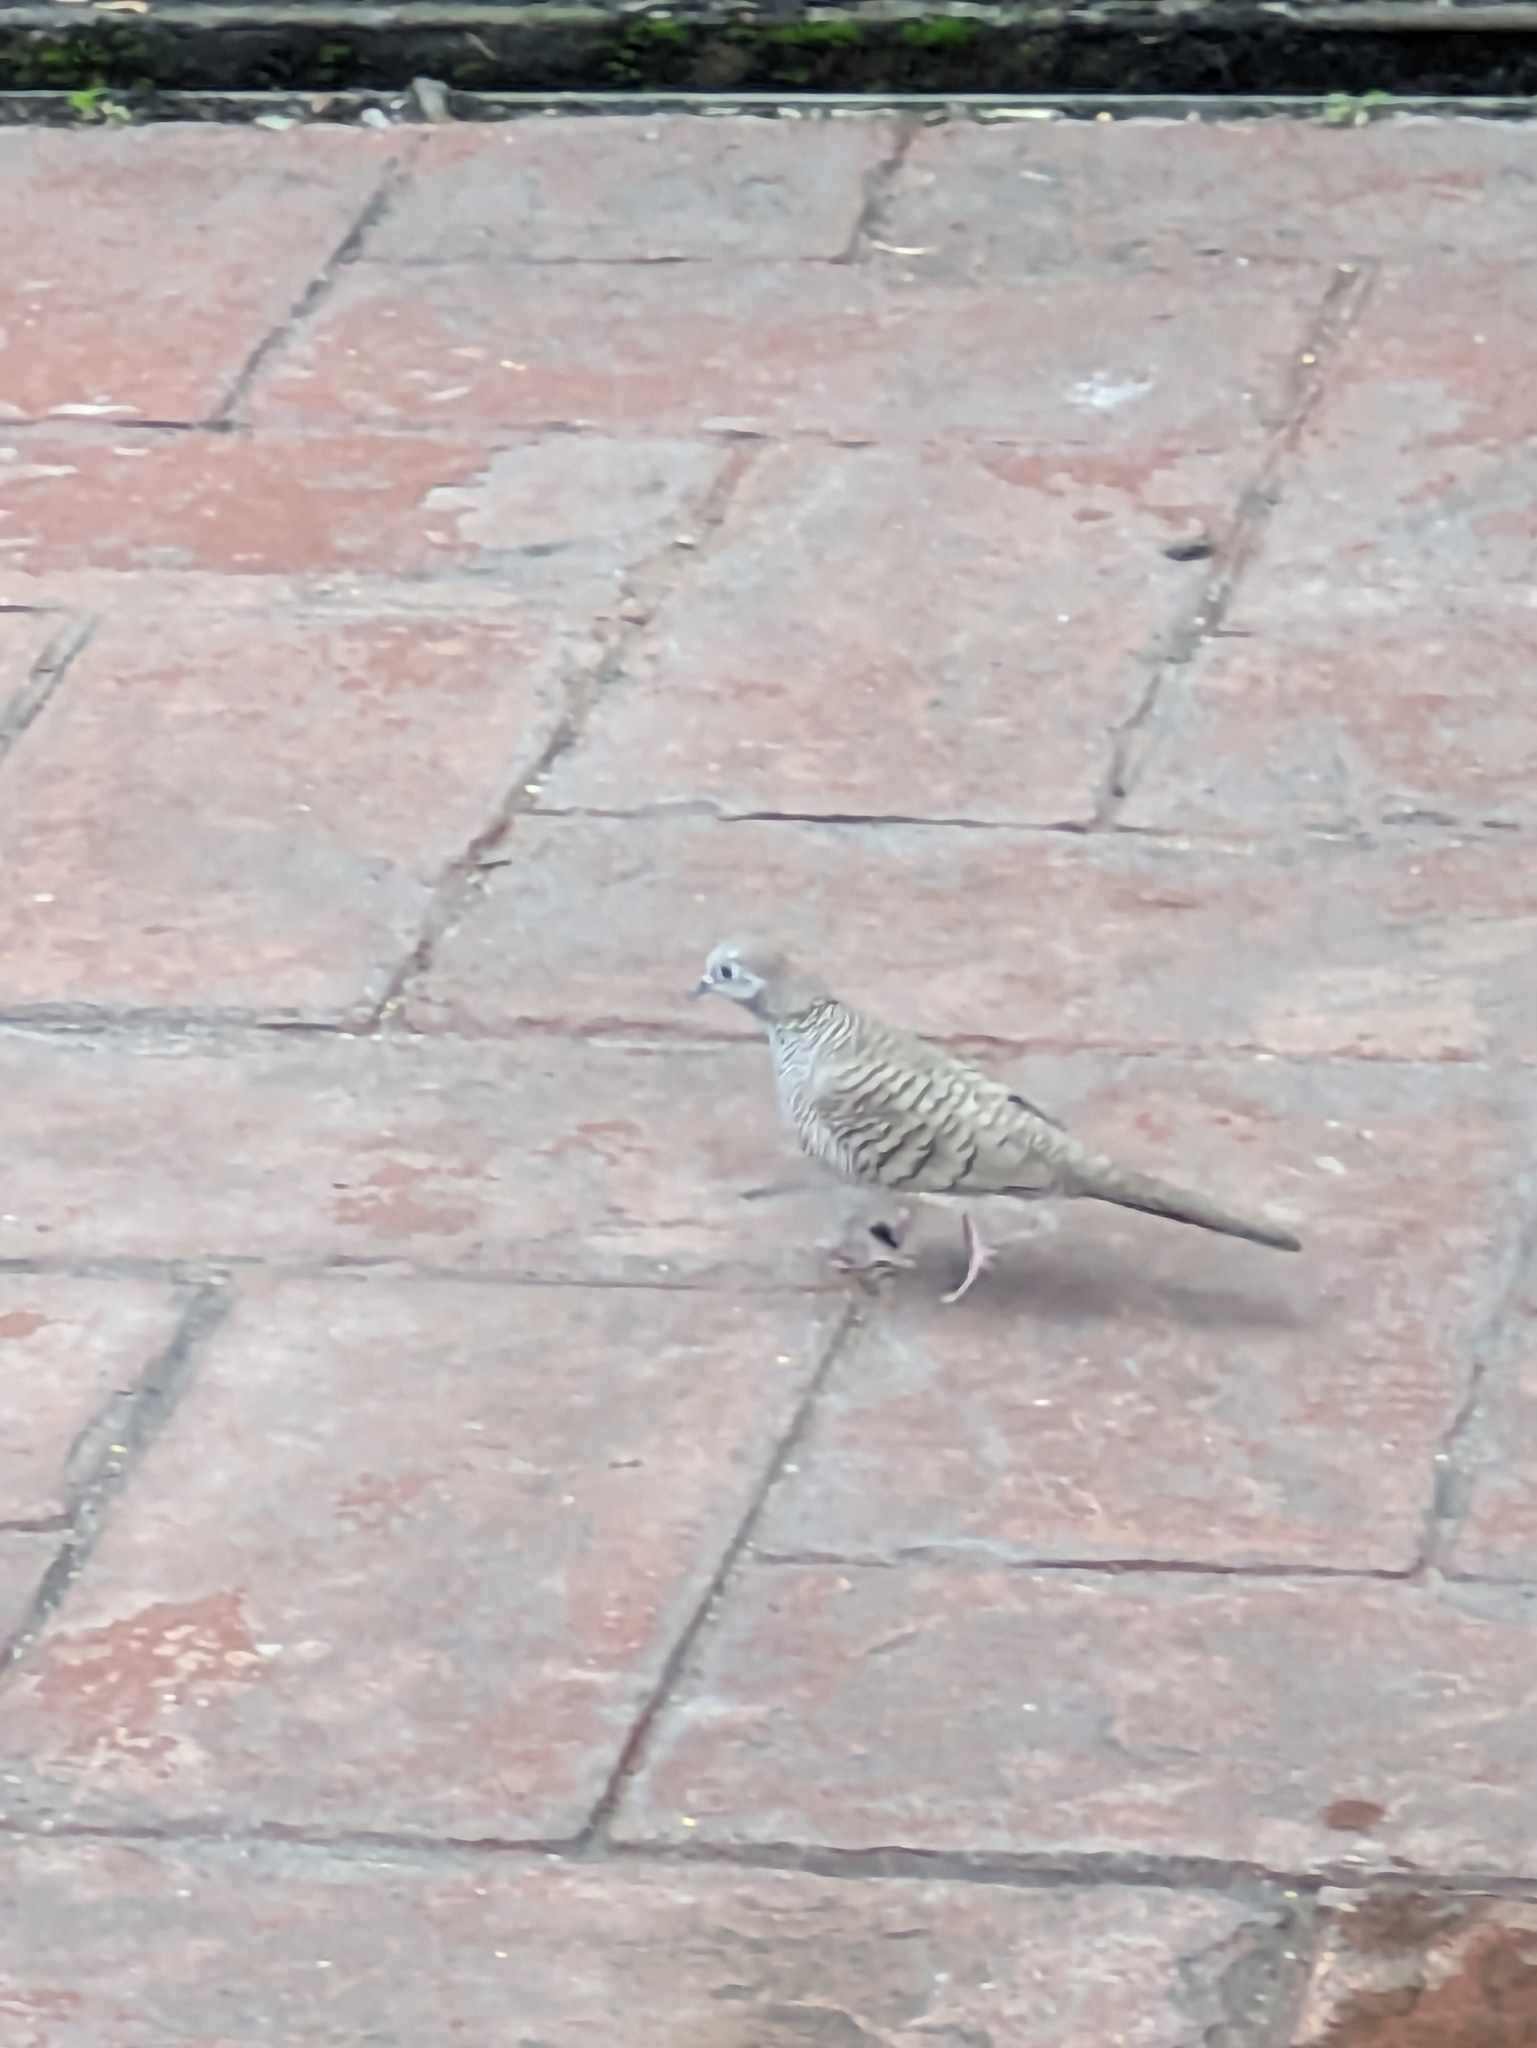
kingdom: Animalia
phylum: Chordata
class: Aves
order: Columbiformes
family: Columbidae
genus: Geopelia
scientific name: Geopelia striata
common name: Zebra dove
